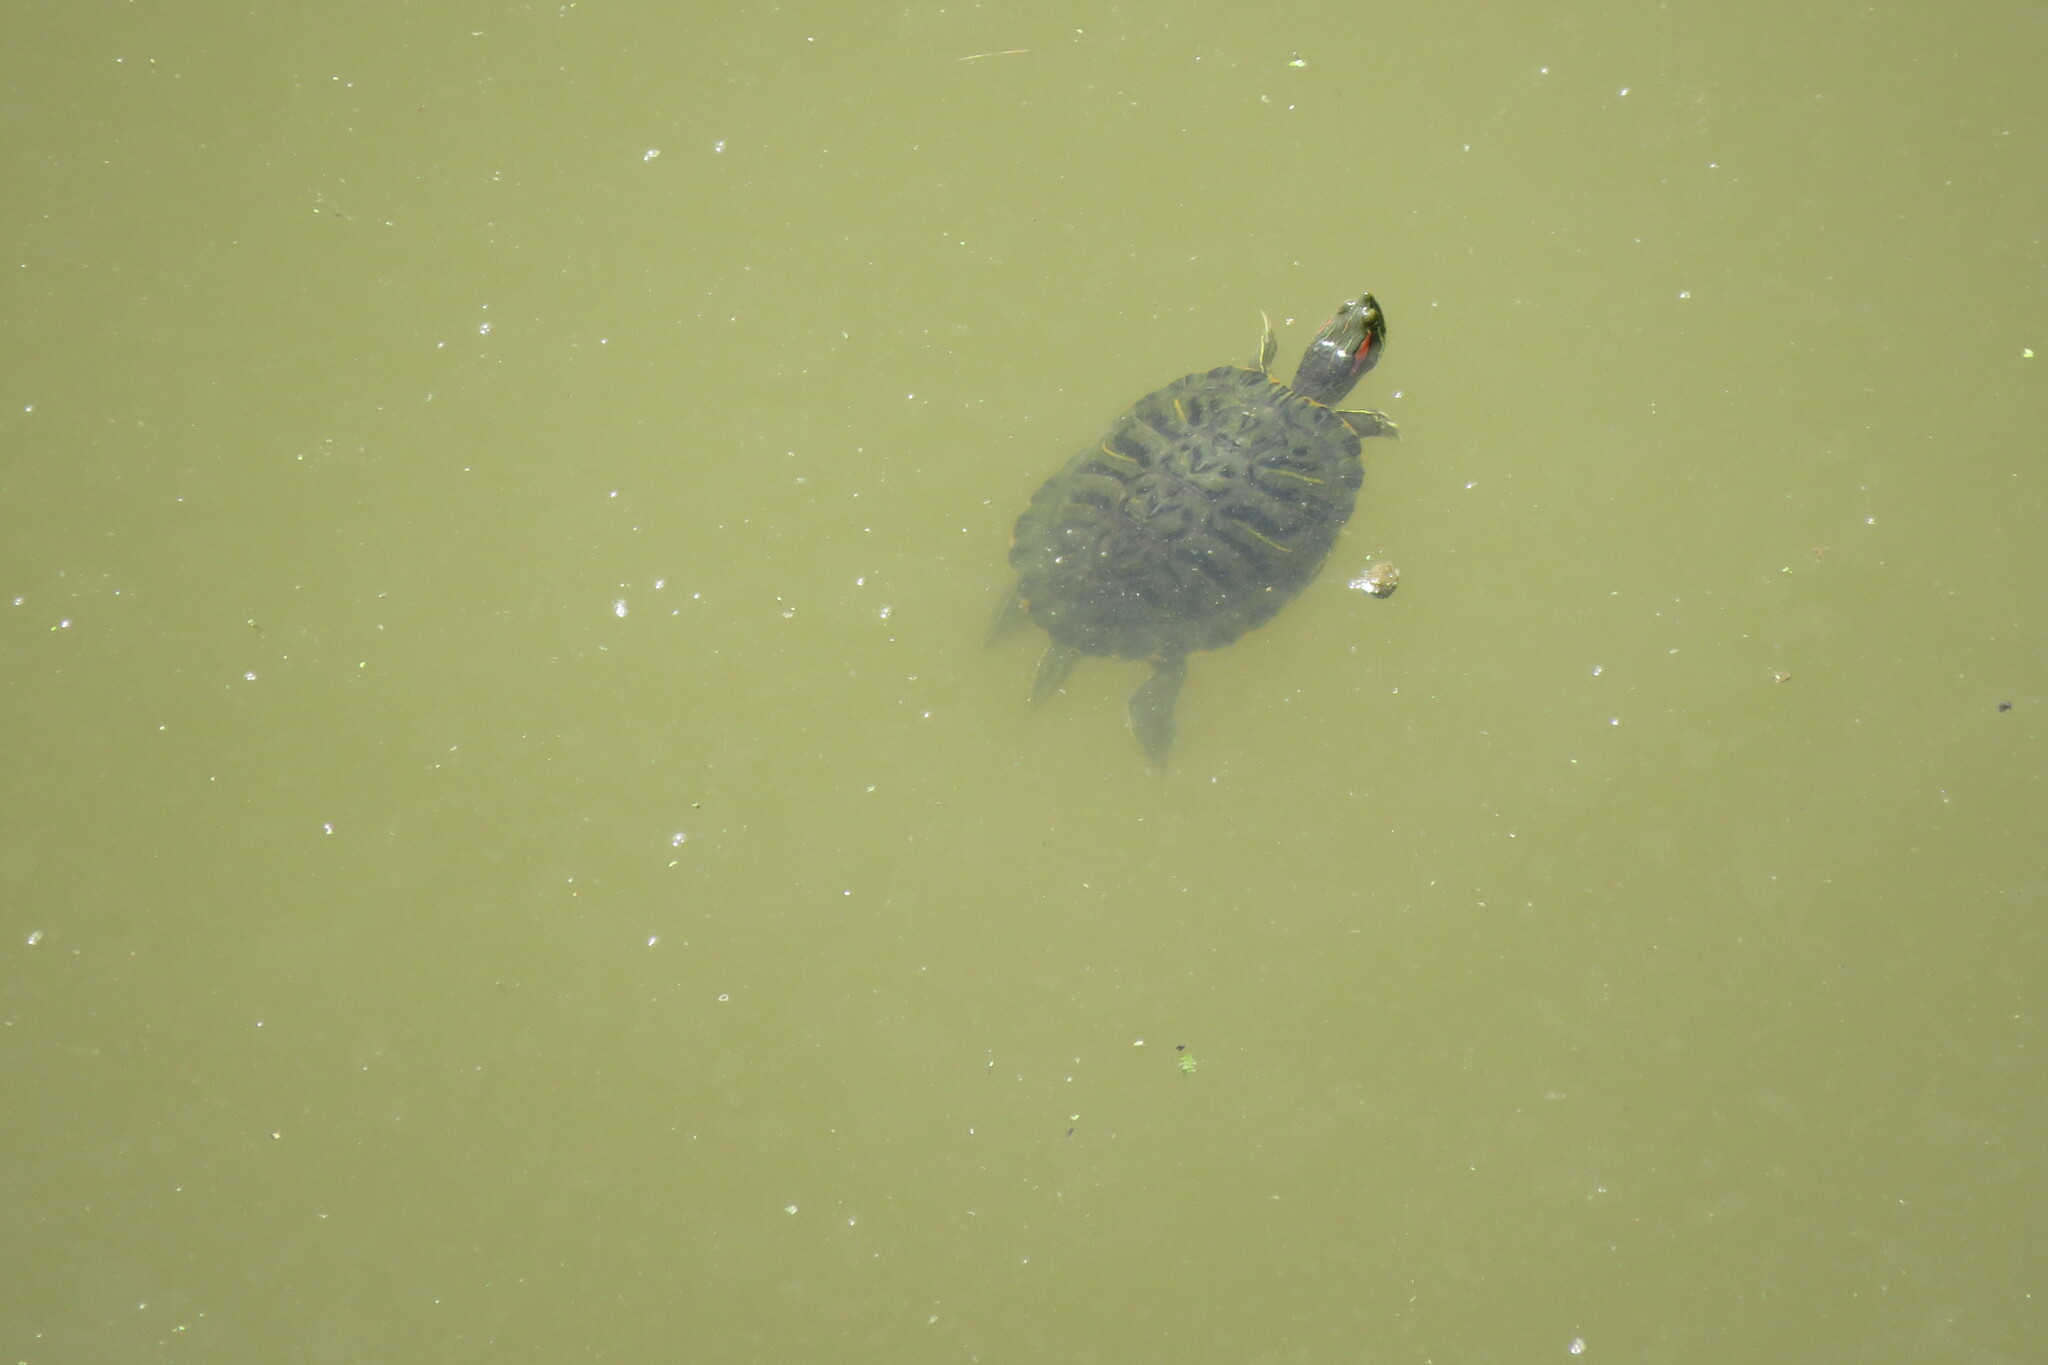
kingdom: Animalia
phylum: Chordata
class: Testudines
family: Emydidae
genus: Trachemys
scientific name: Trachemys scripta
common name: Slider
